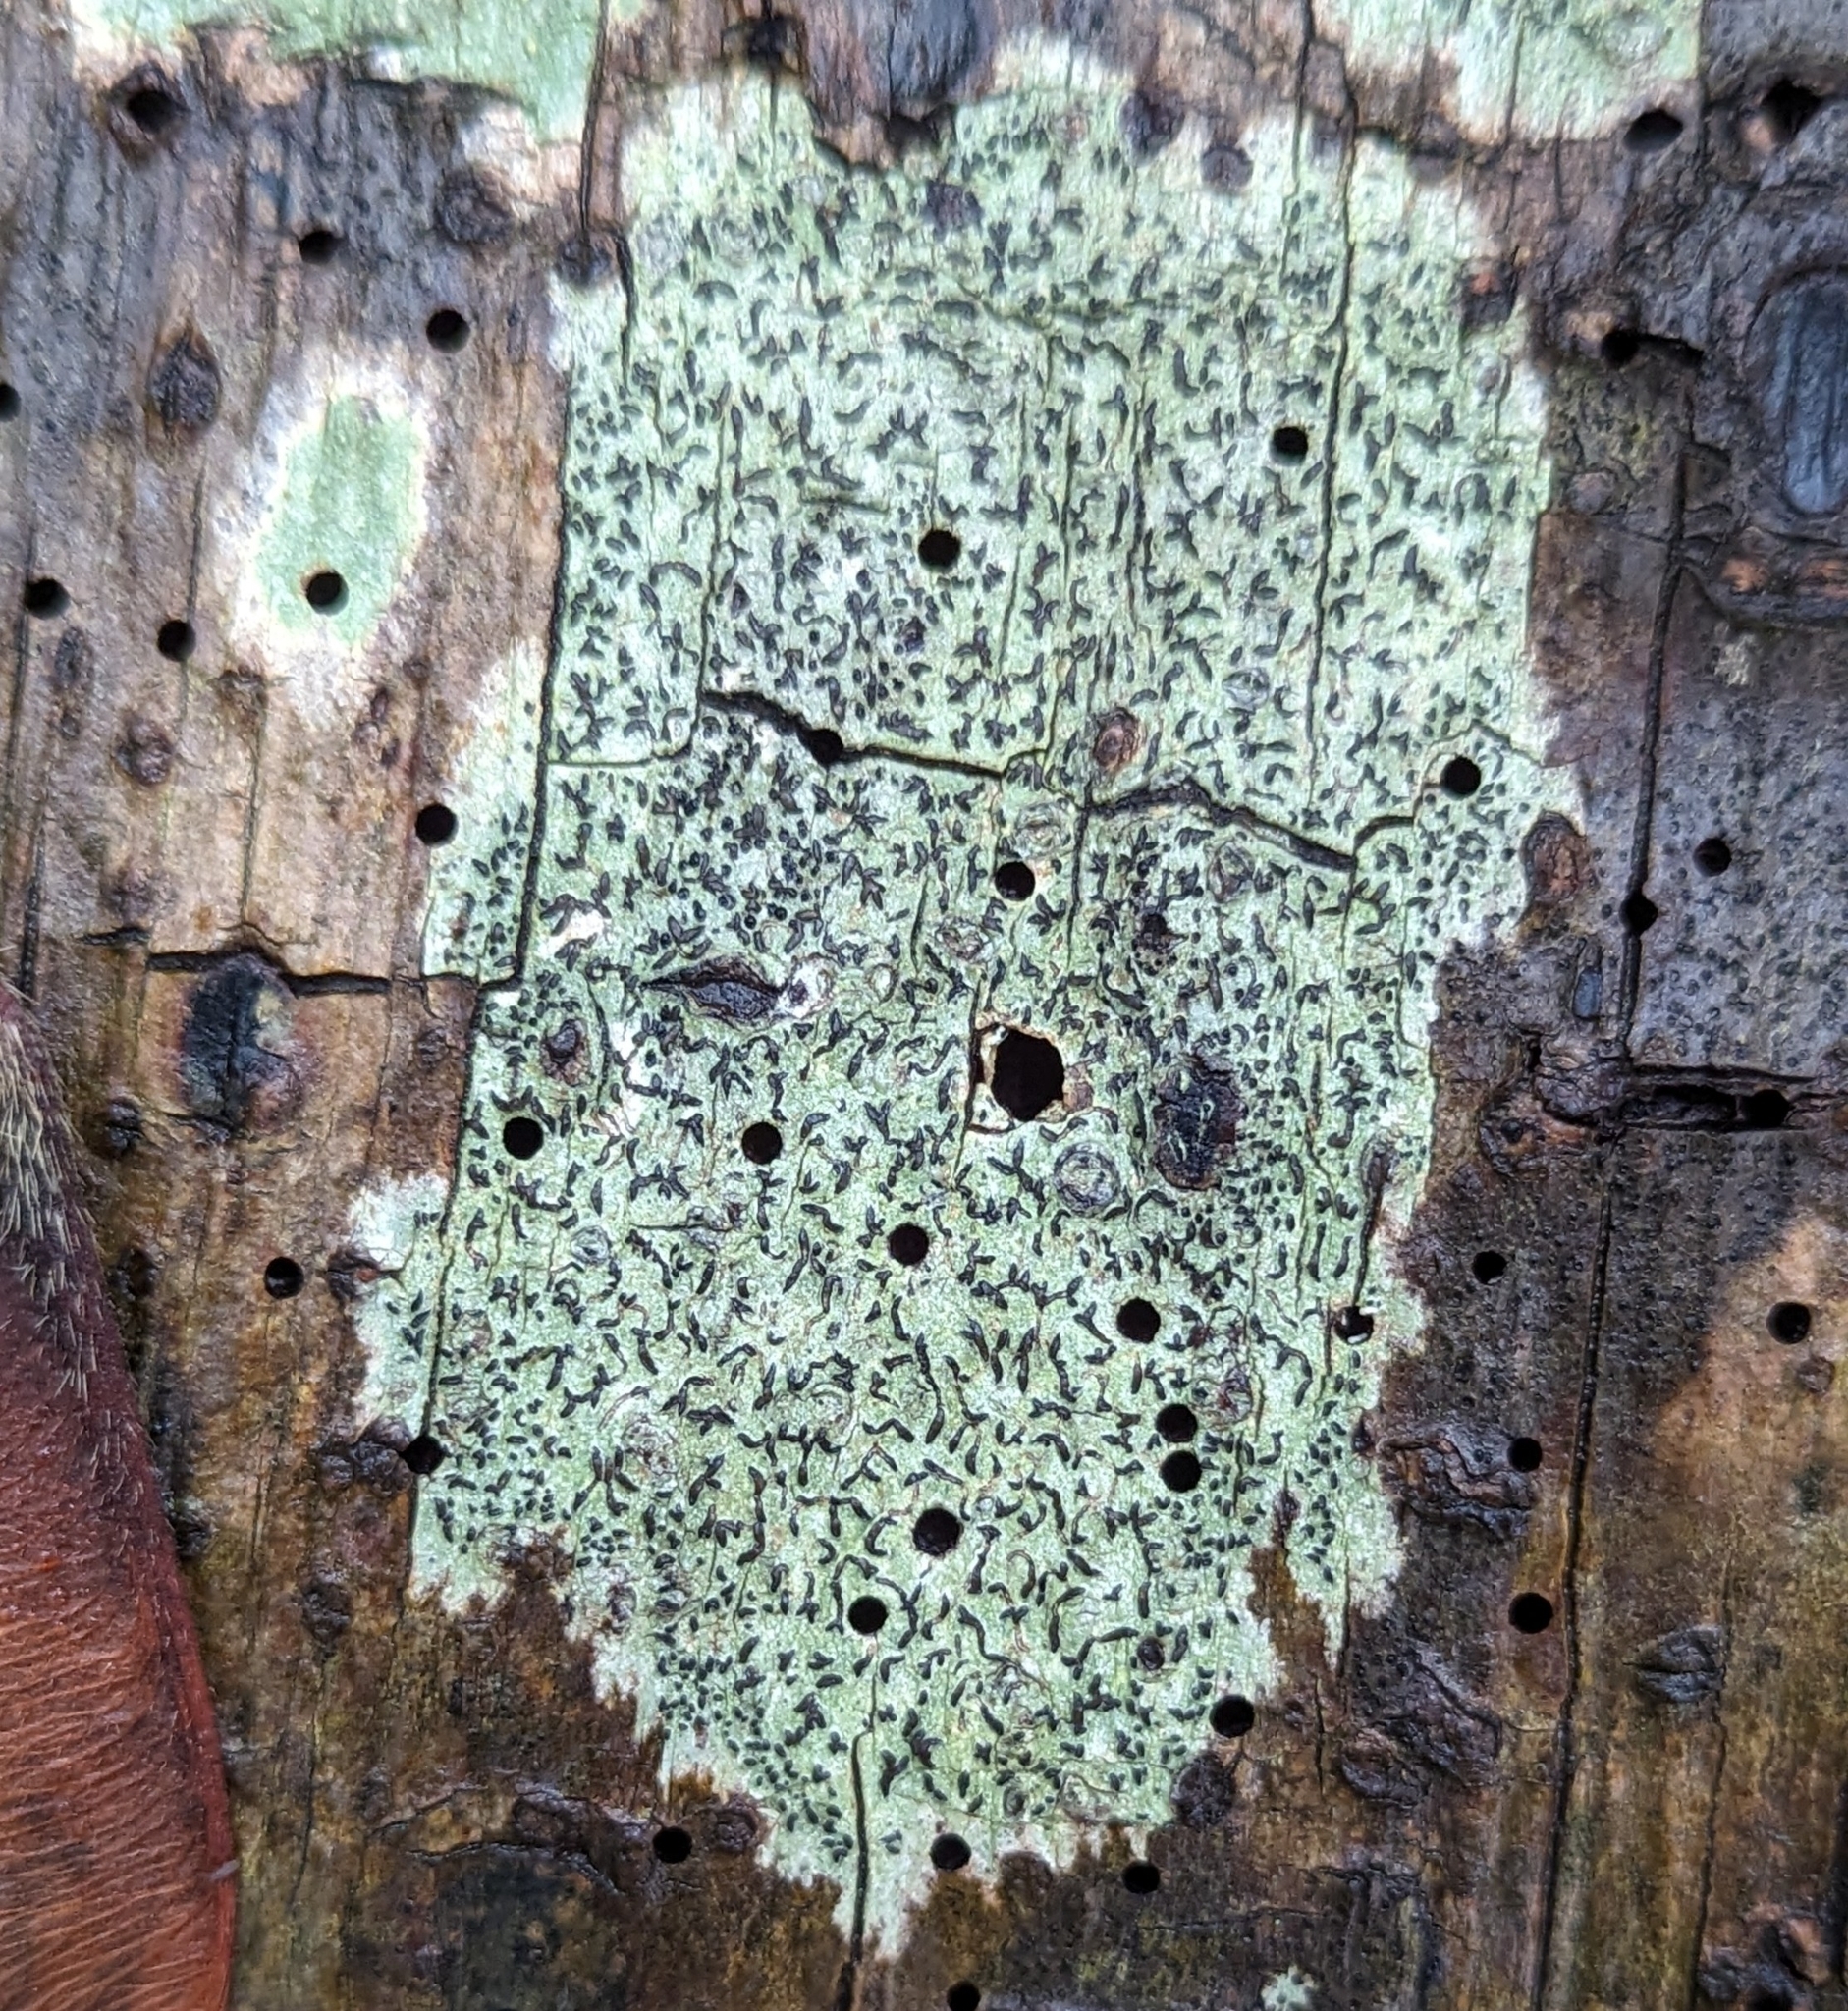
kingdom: Fungi
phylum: Ascomycota
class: Lecanoromycetes
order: Ostropales
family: Graphidaceae
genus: Graphis
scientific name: Graphis scripta
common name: Script lichen
